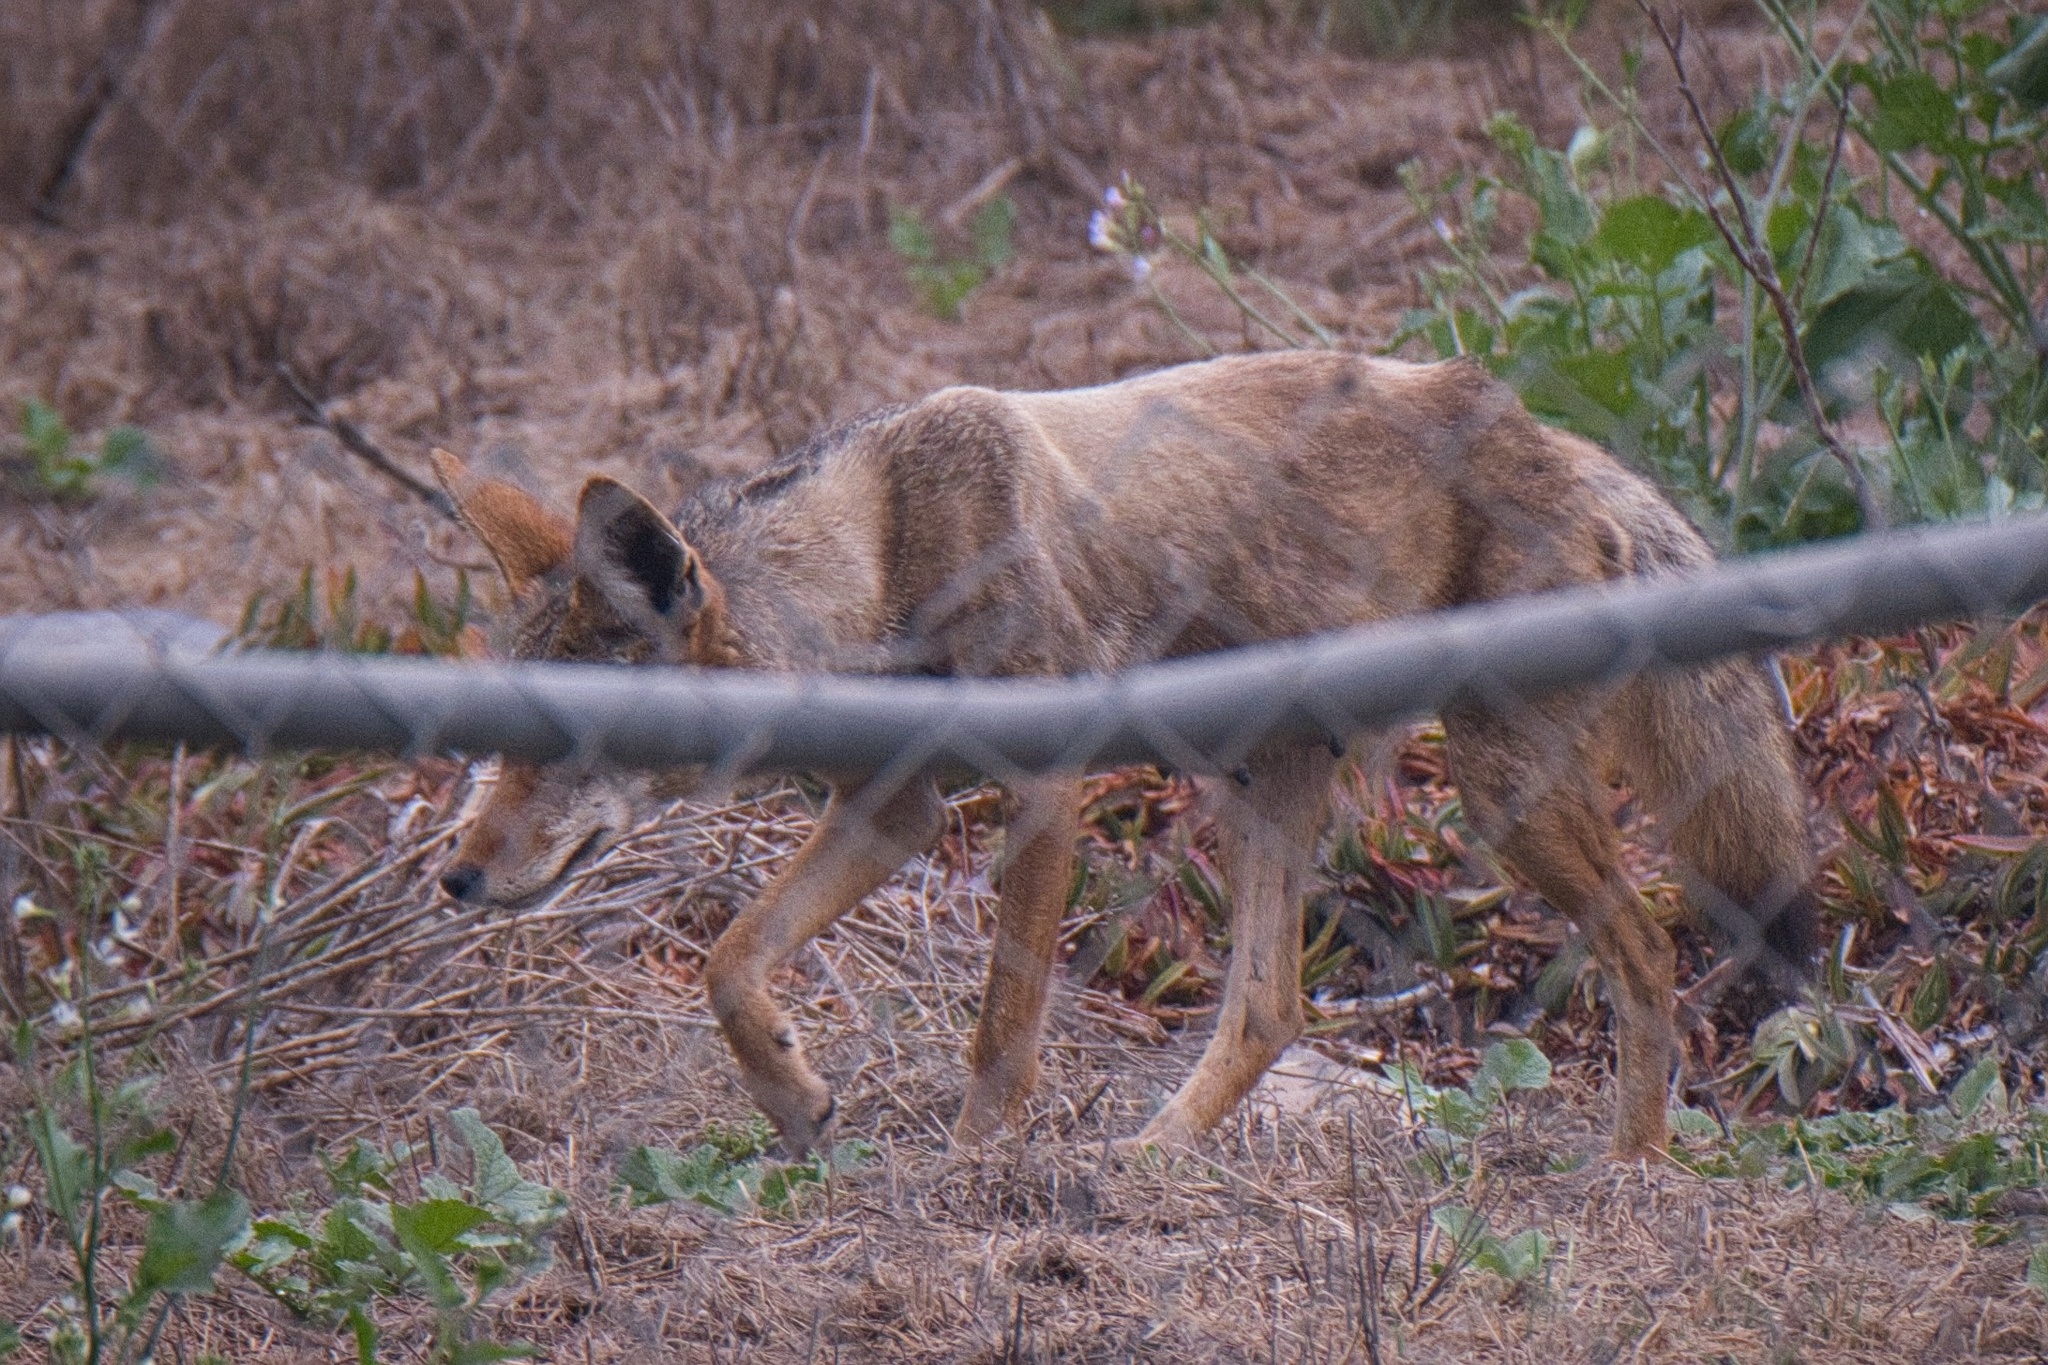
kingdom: Animalia
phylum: Chordata
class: Mammalia
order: Carnivora
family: Canidae
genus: Canis
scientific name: Canis latrans
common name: Coyote
